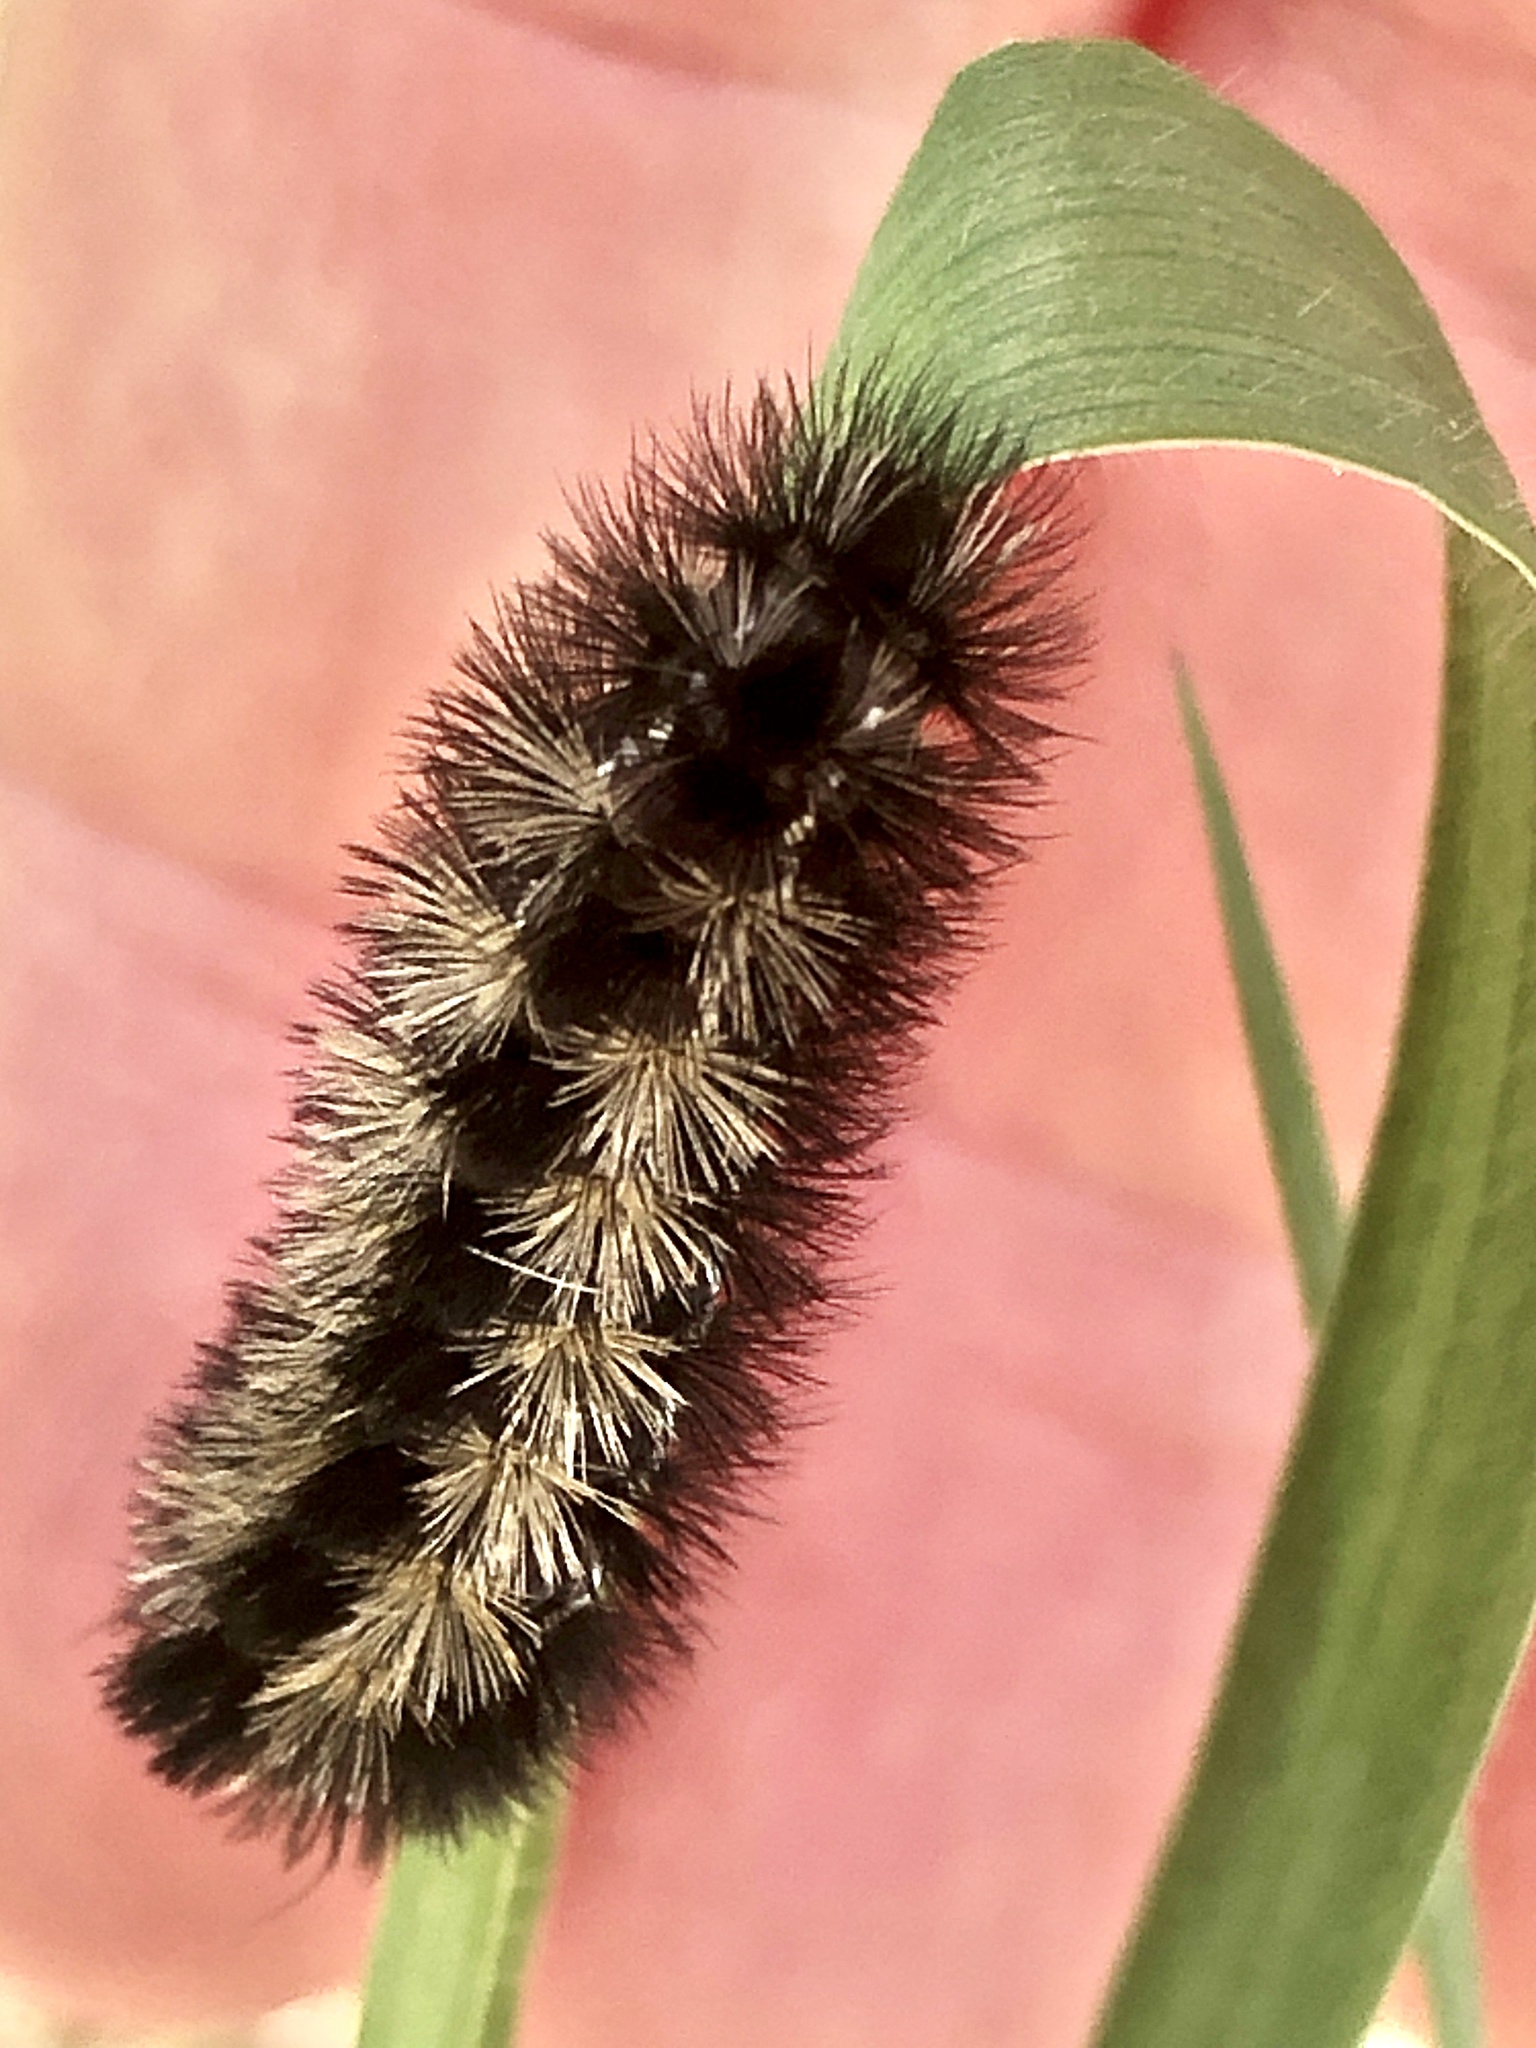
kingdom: Animalia
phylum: Arthropoda
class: Insecta
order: Lepidoptera
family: Erebidae
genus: Ctenucha
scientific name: Ctenucha virginica
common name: Virginia ctenucha moth
